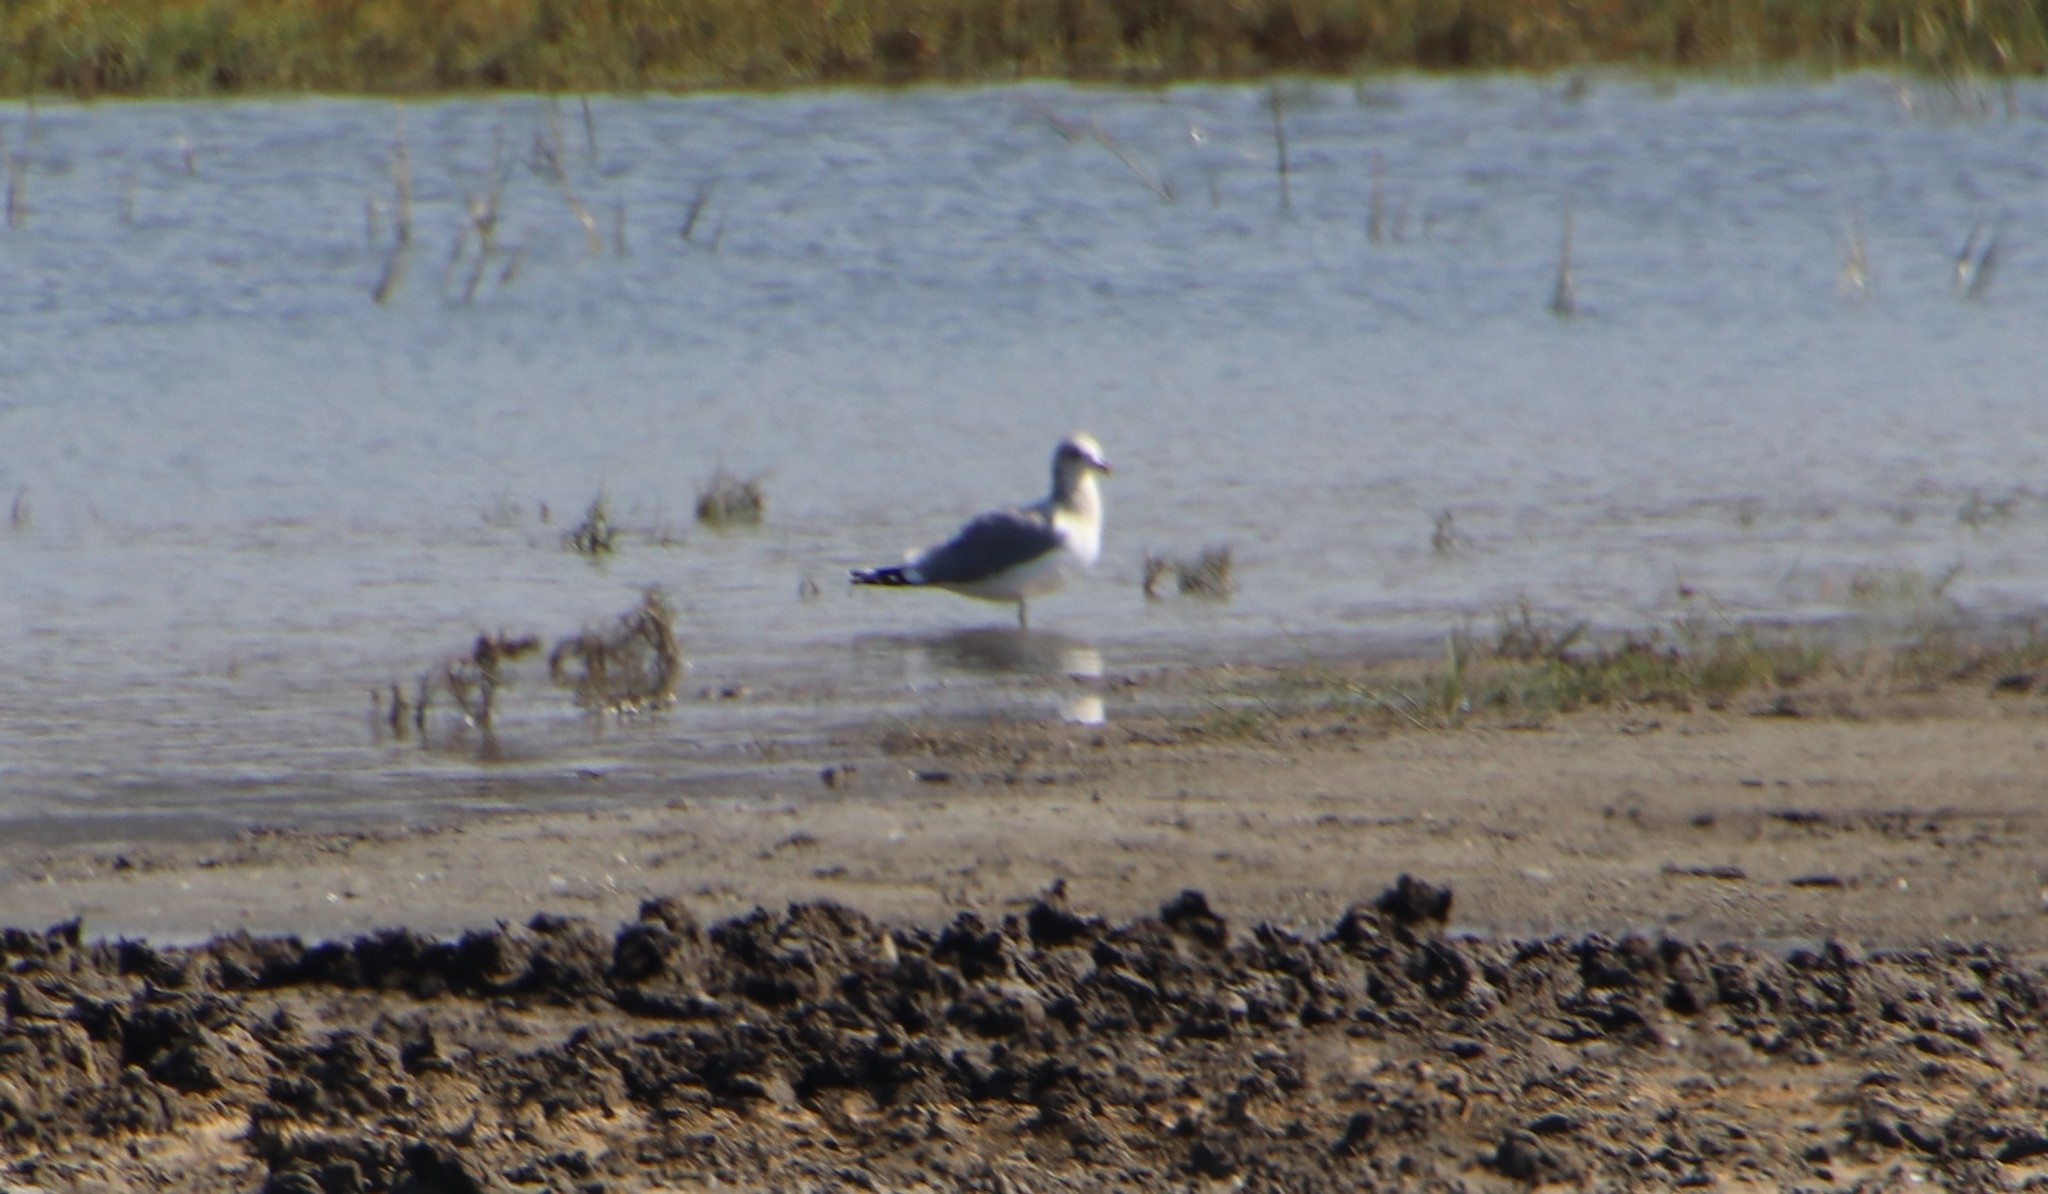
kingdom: Animalia
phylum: Chordata
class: Aves
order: Charadriiformes
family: Laridae
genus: Larus
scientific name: Larus californicus
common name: California gull
